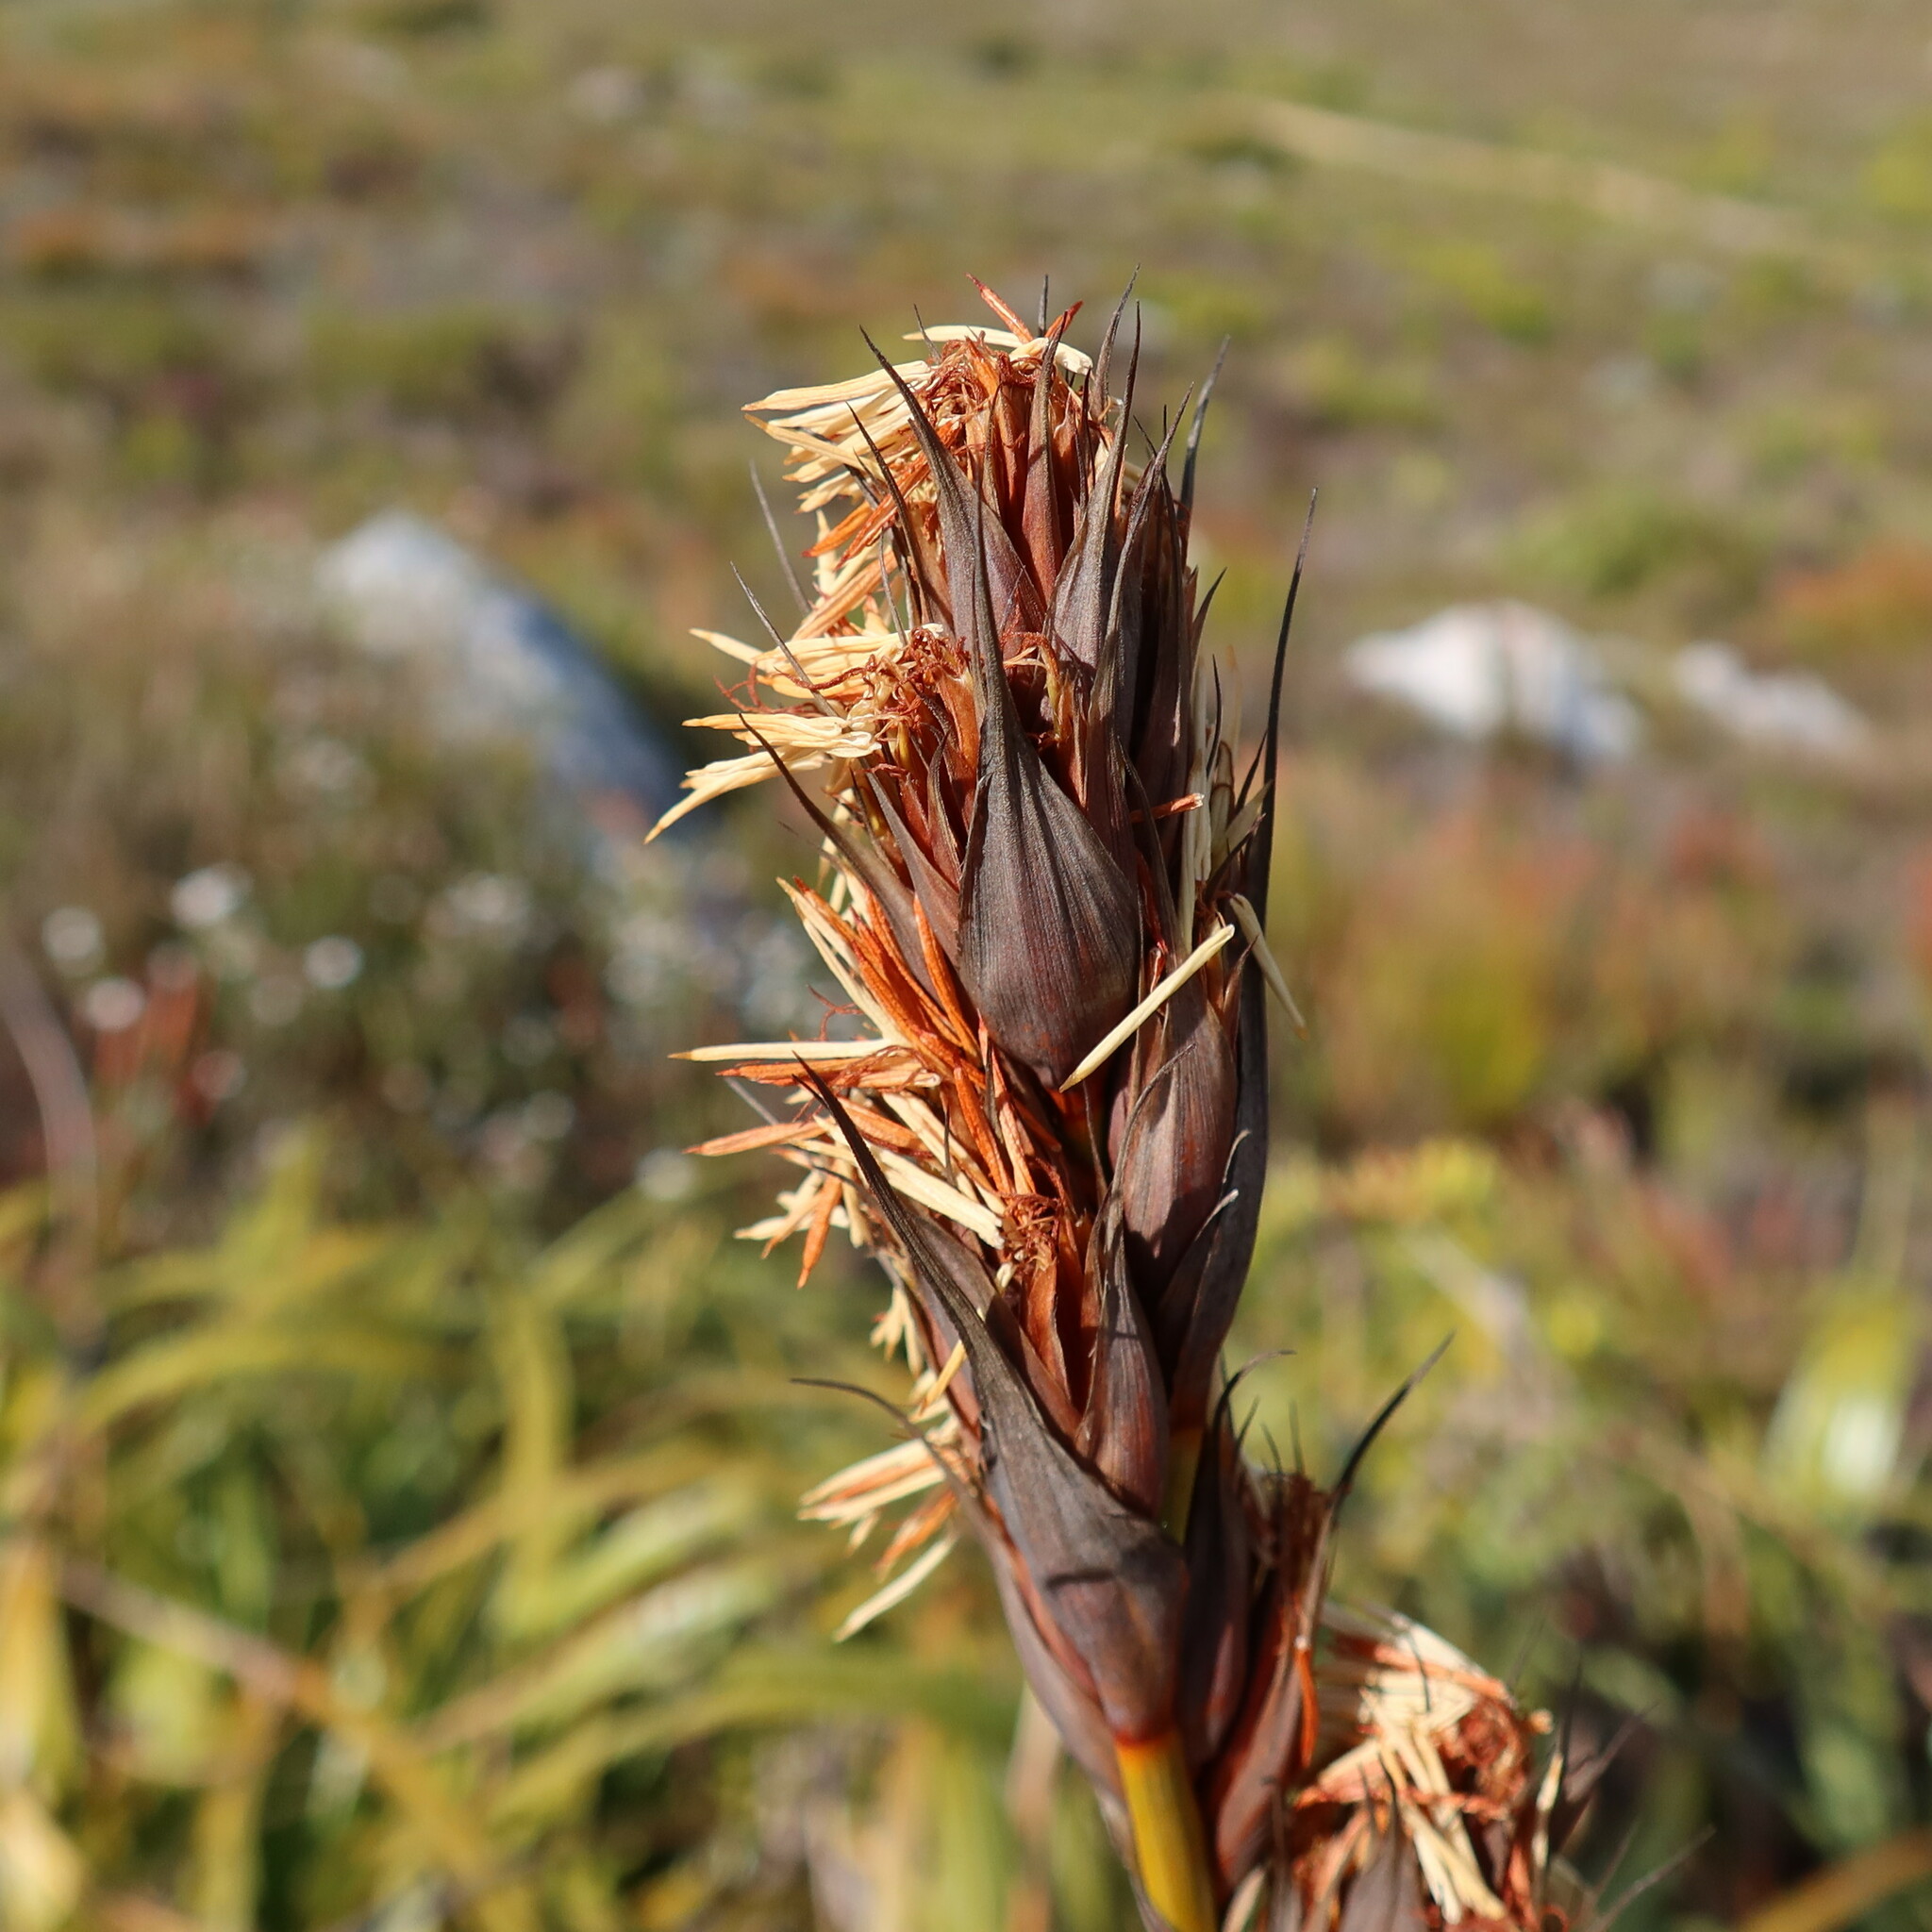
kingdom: Plantae
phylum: Tracheophyta
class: Liliopsida
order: Poales
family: Cyperaceae
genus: Tetraria
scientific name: Tetraria thermalis
